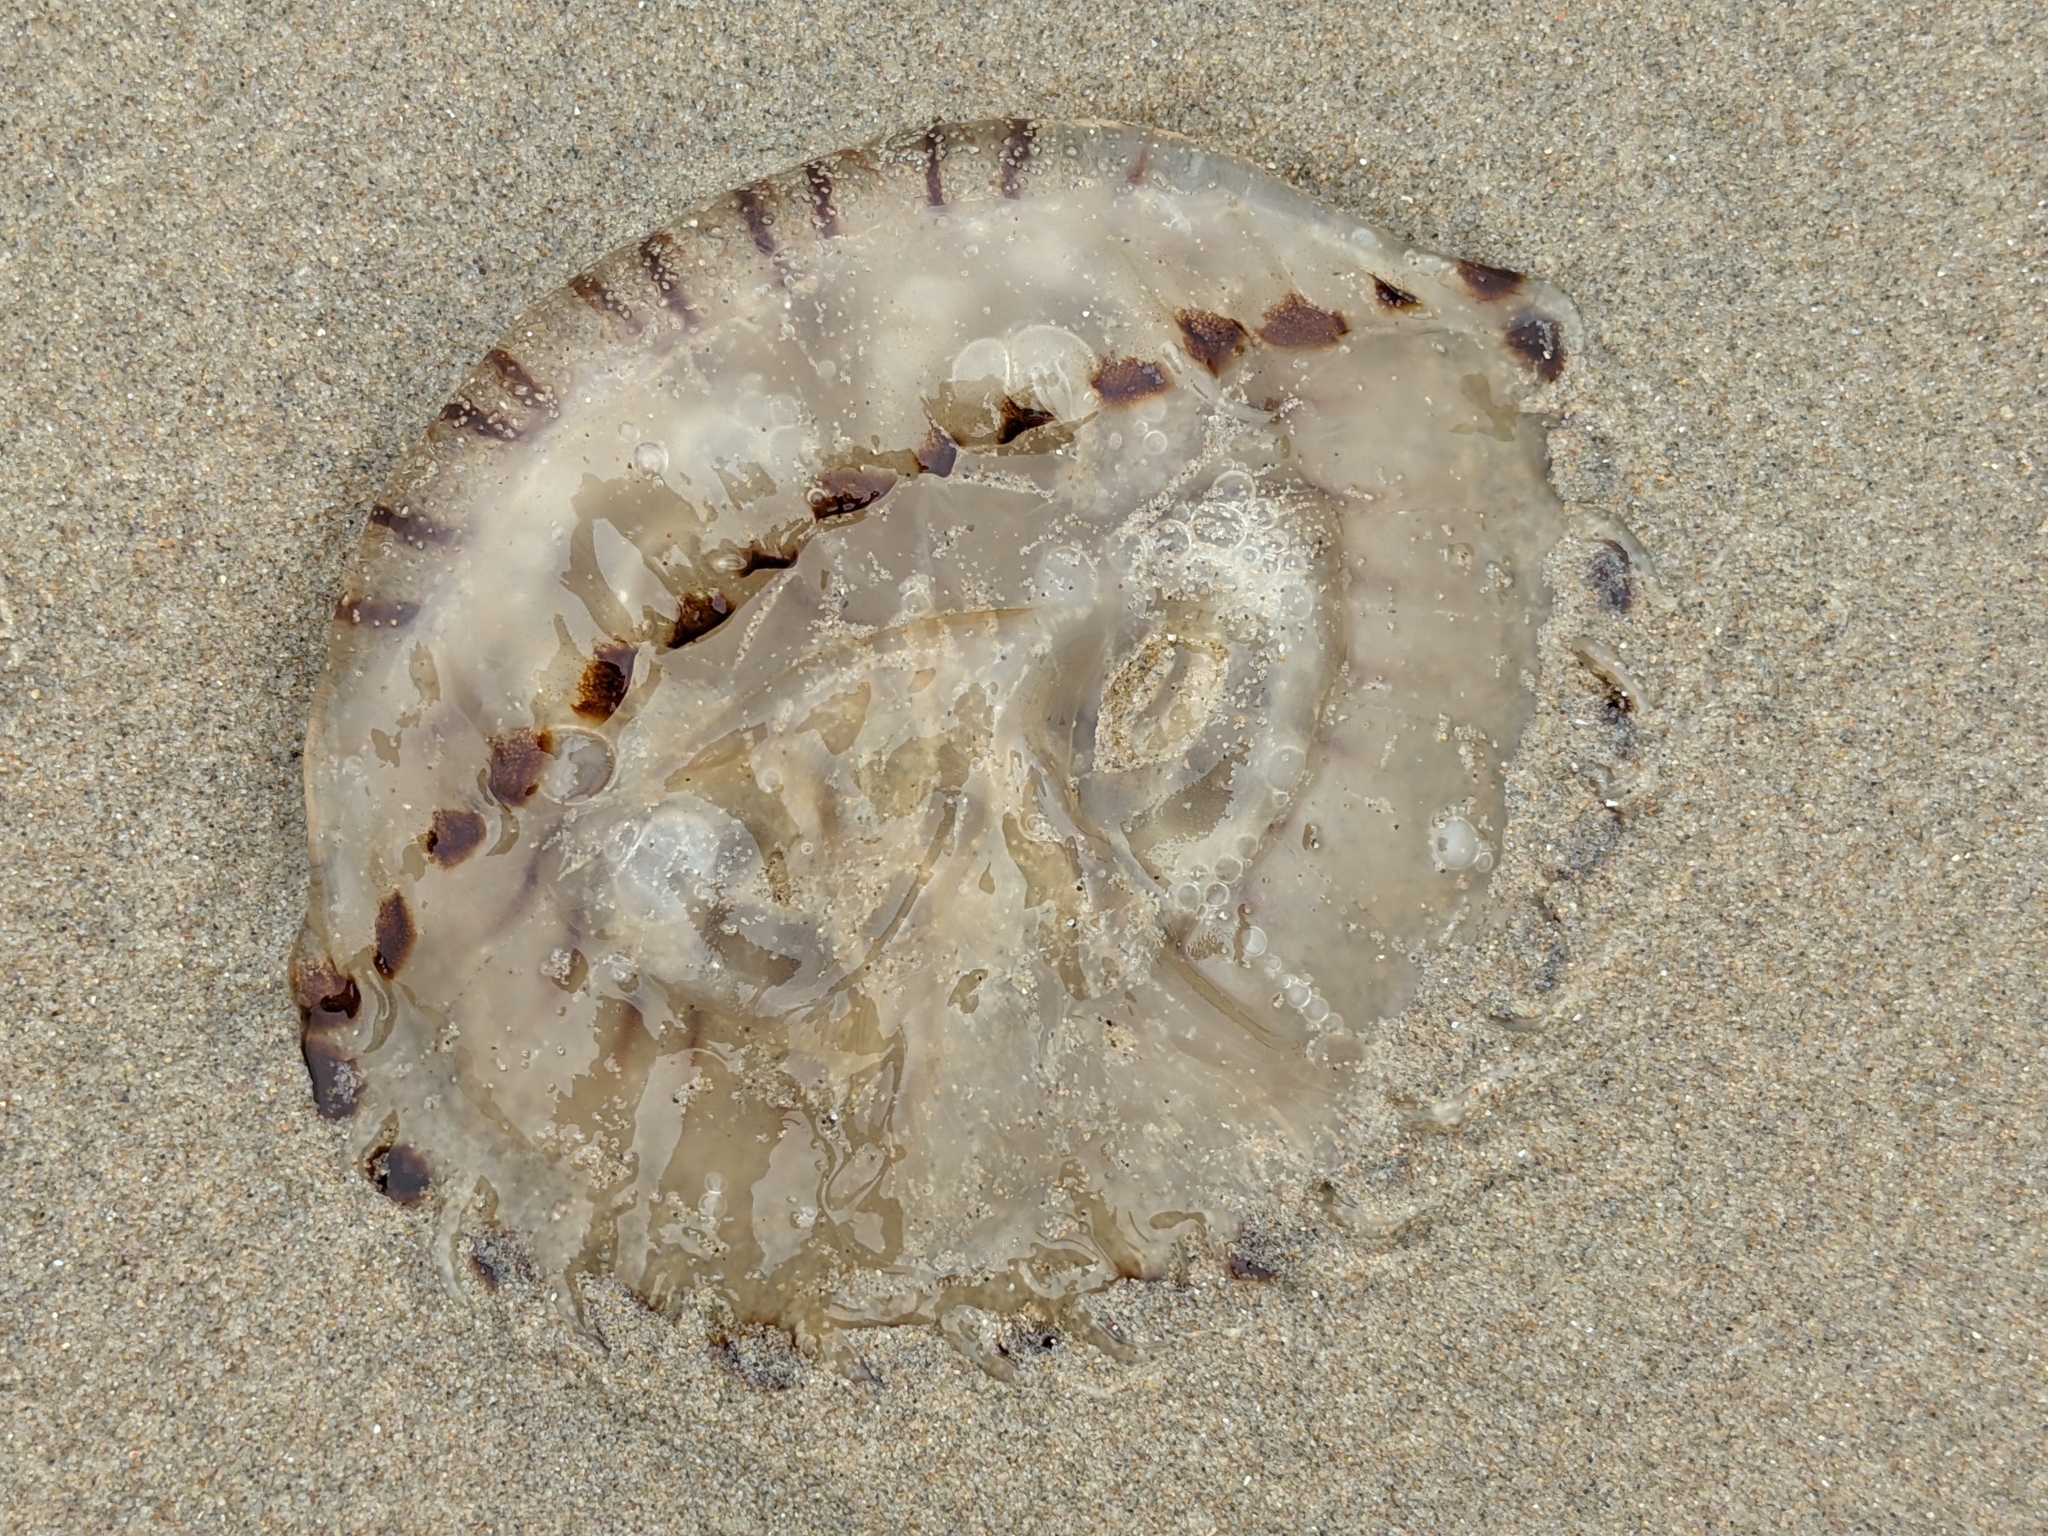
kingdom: Animalia
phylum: Cnidaria
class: Scyphozoa
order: Semaeostomeae
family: Pelagiidae
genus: Chrysaora
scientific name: Chrysaora hysoscella
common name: Compass jellyfish
